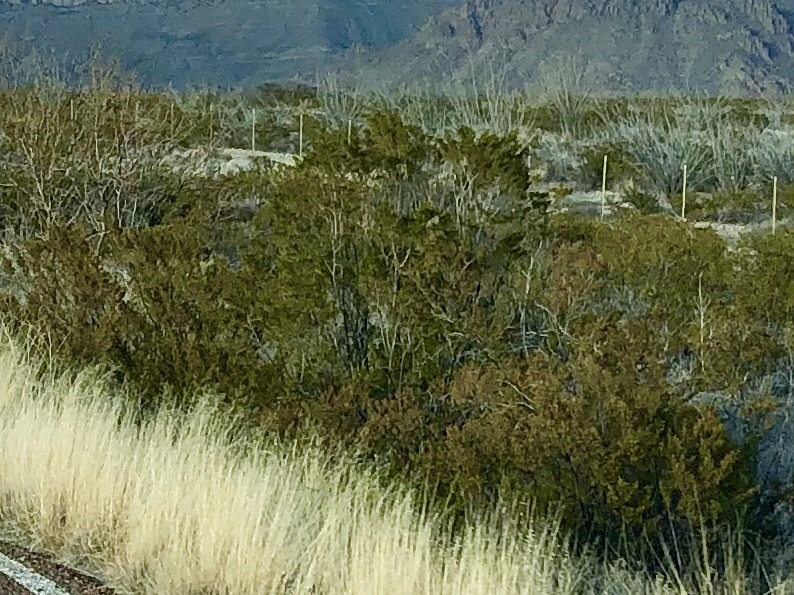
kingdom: Plantae
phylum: Tracheophyta
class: Magnoliopsida
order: Zygophyllales
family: Zygophyllaceae
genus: Larrea
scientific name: Larrea tridentata
